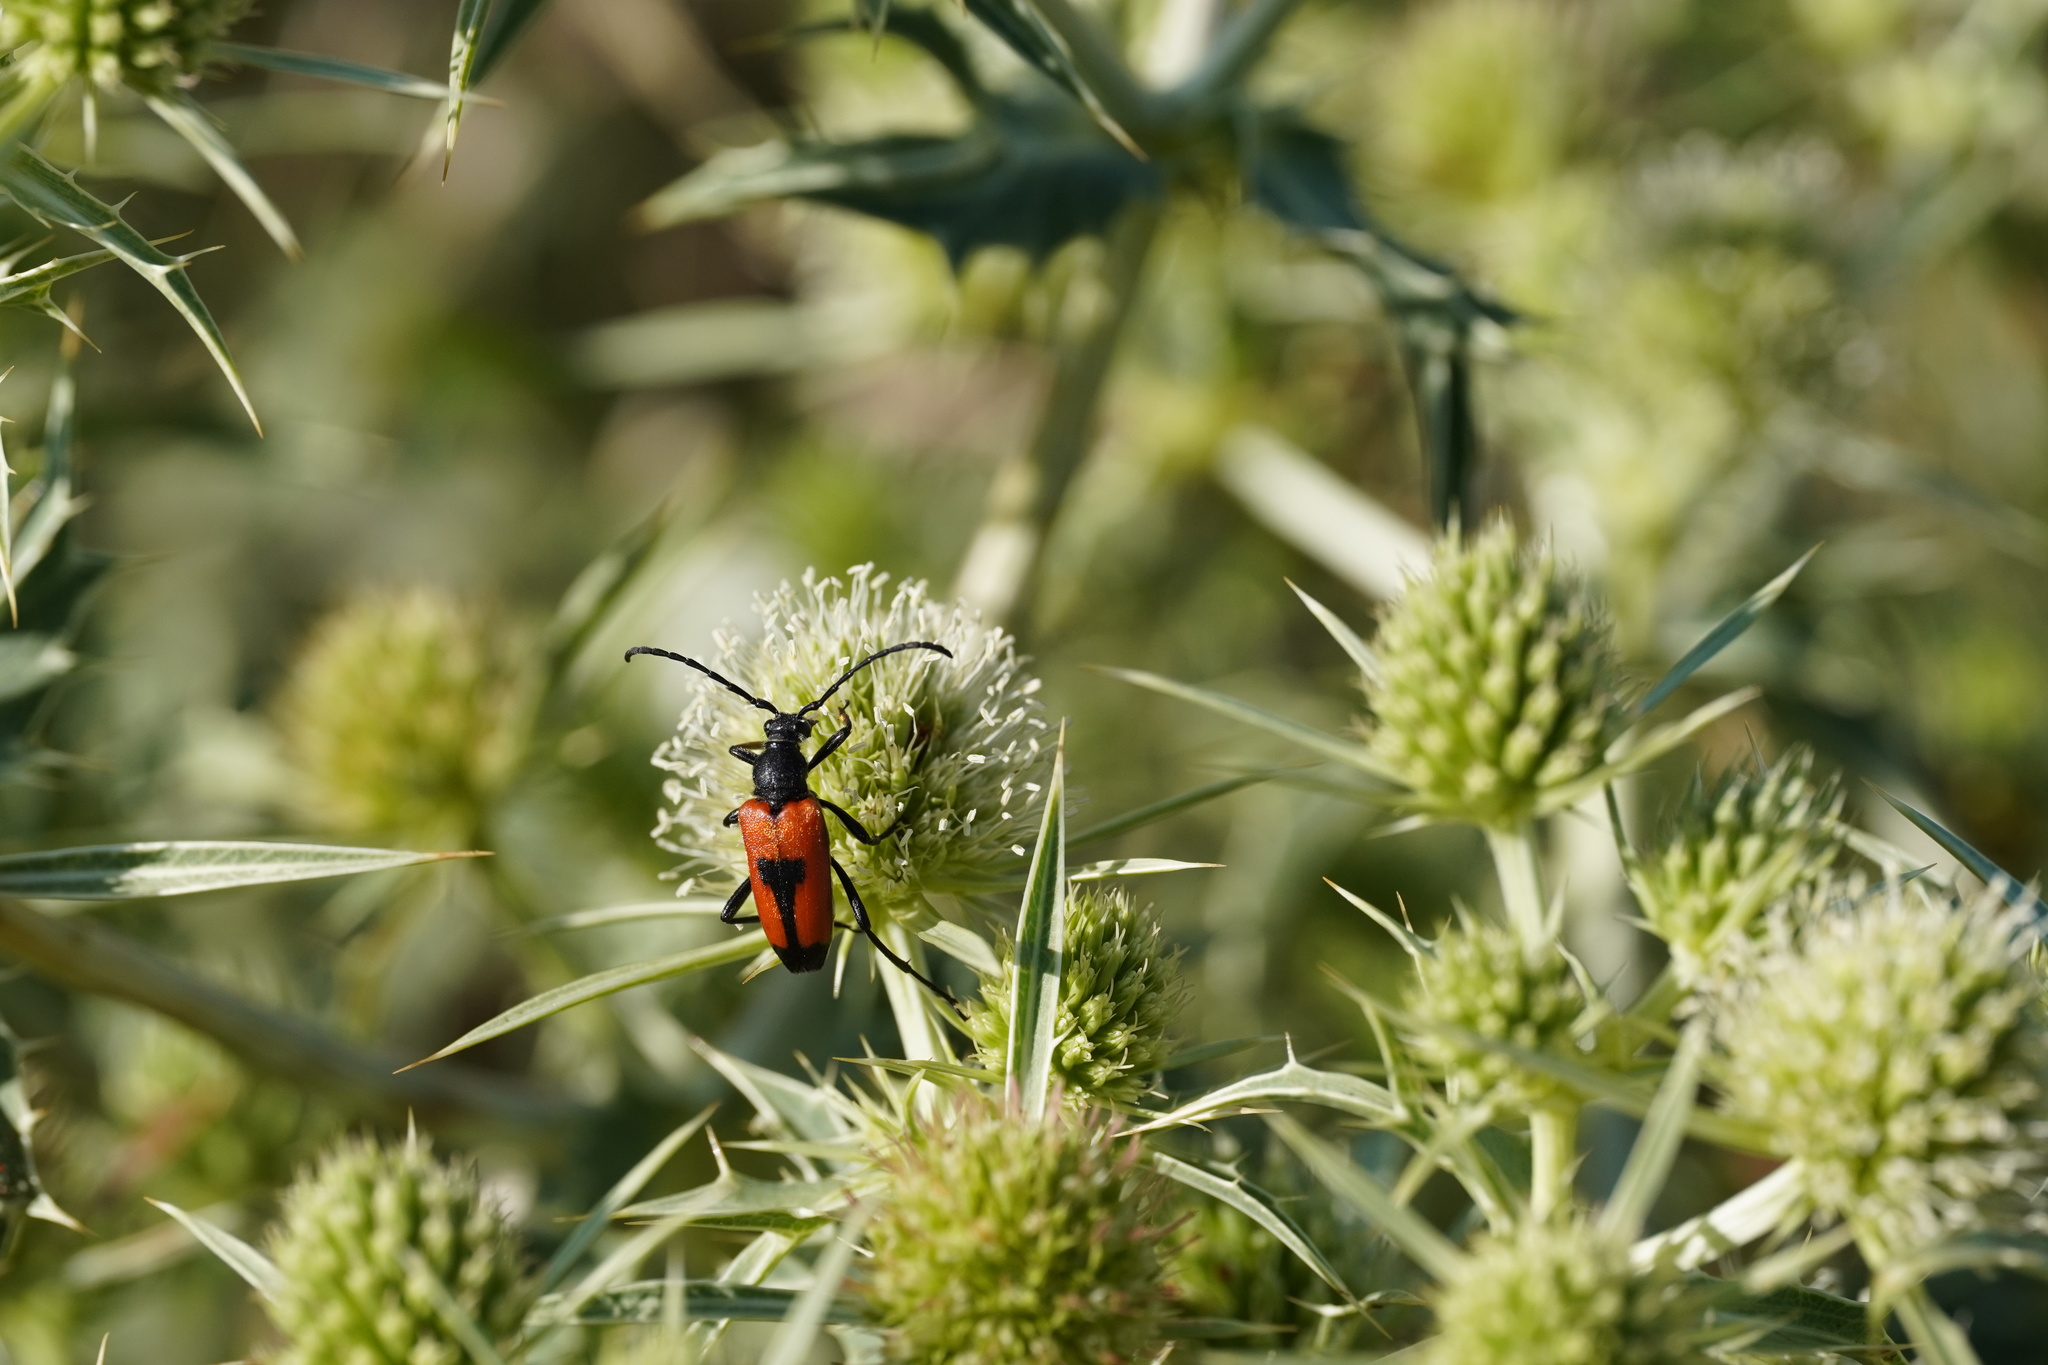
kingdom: Animalia
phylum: Arthropoda
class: Insecta
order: Coleoptera
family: Cerambycidae
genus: Stictoleptura
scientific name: Stictoleptura cordigera
